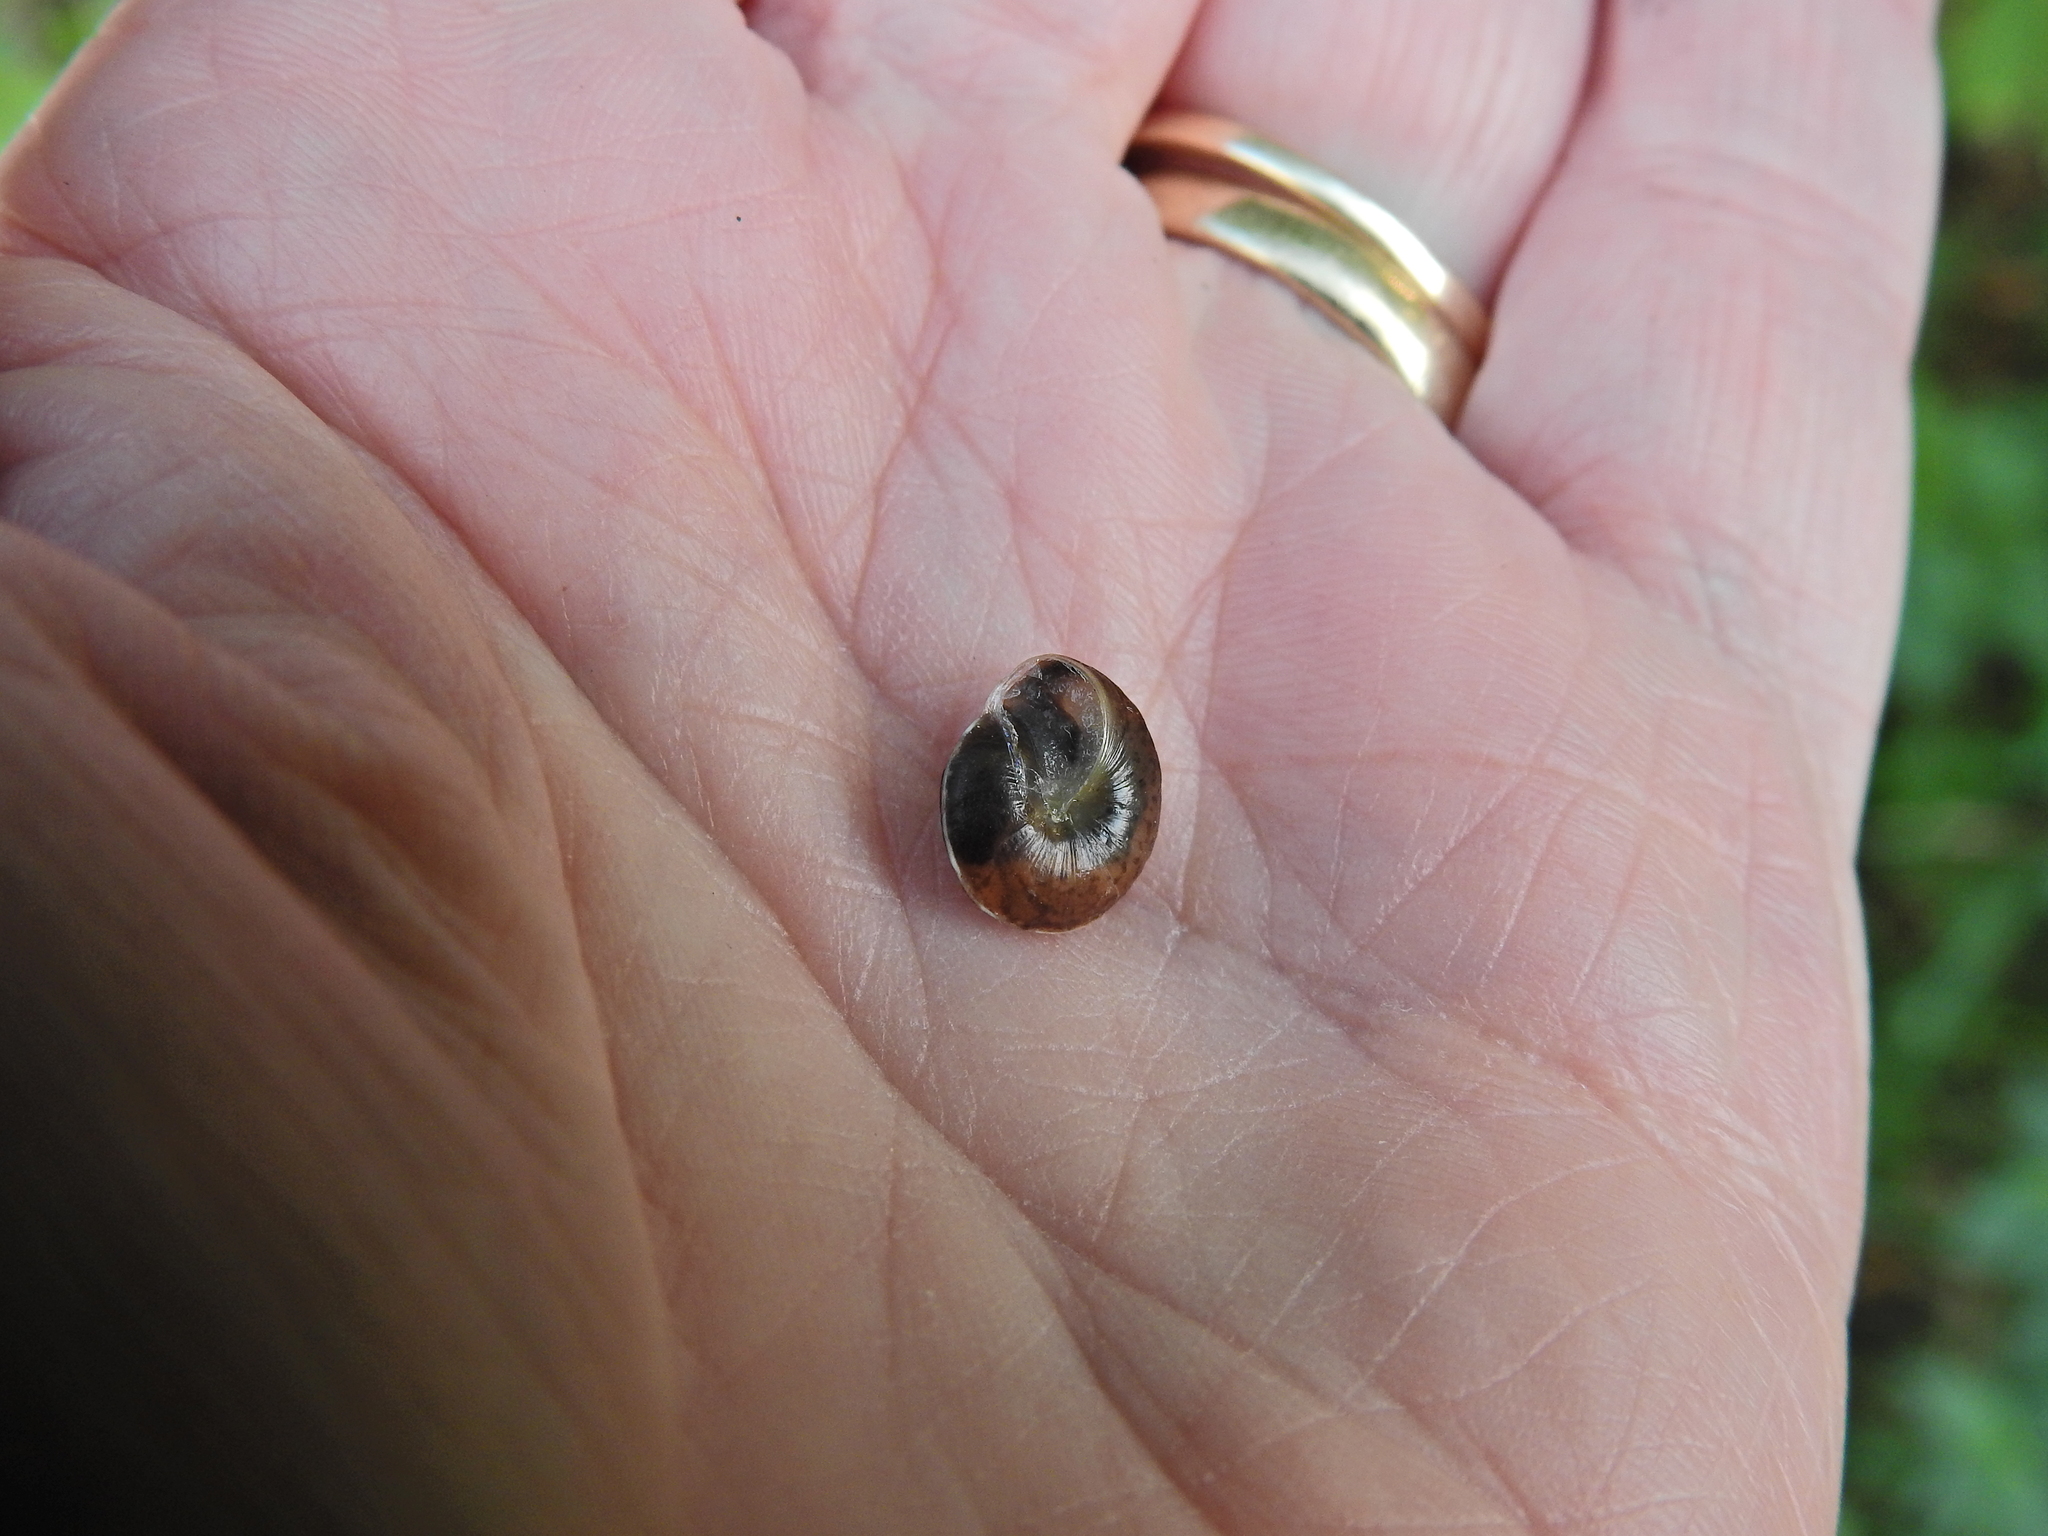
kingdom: Animalia
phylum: Mollusca
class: Gastropoda
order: Stylommatophora
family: Hygromiidae
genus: Hygromia
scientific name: Hygromia cinctella
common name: Girdled snail
